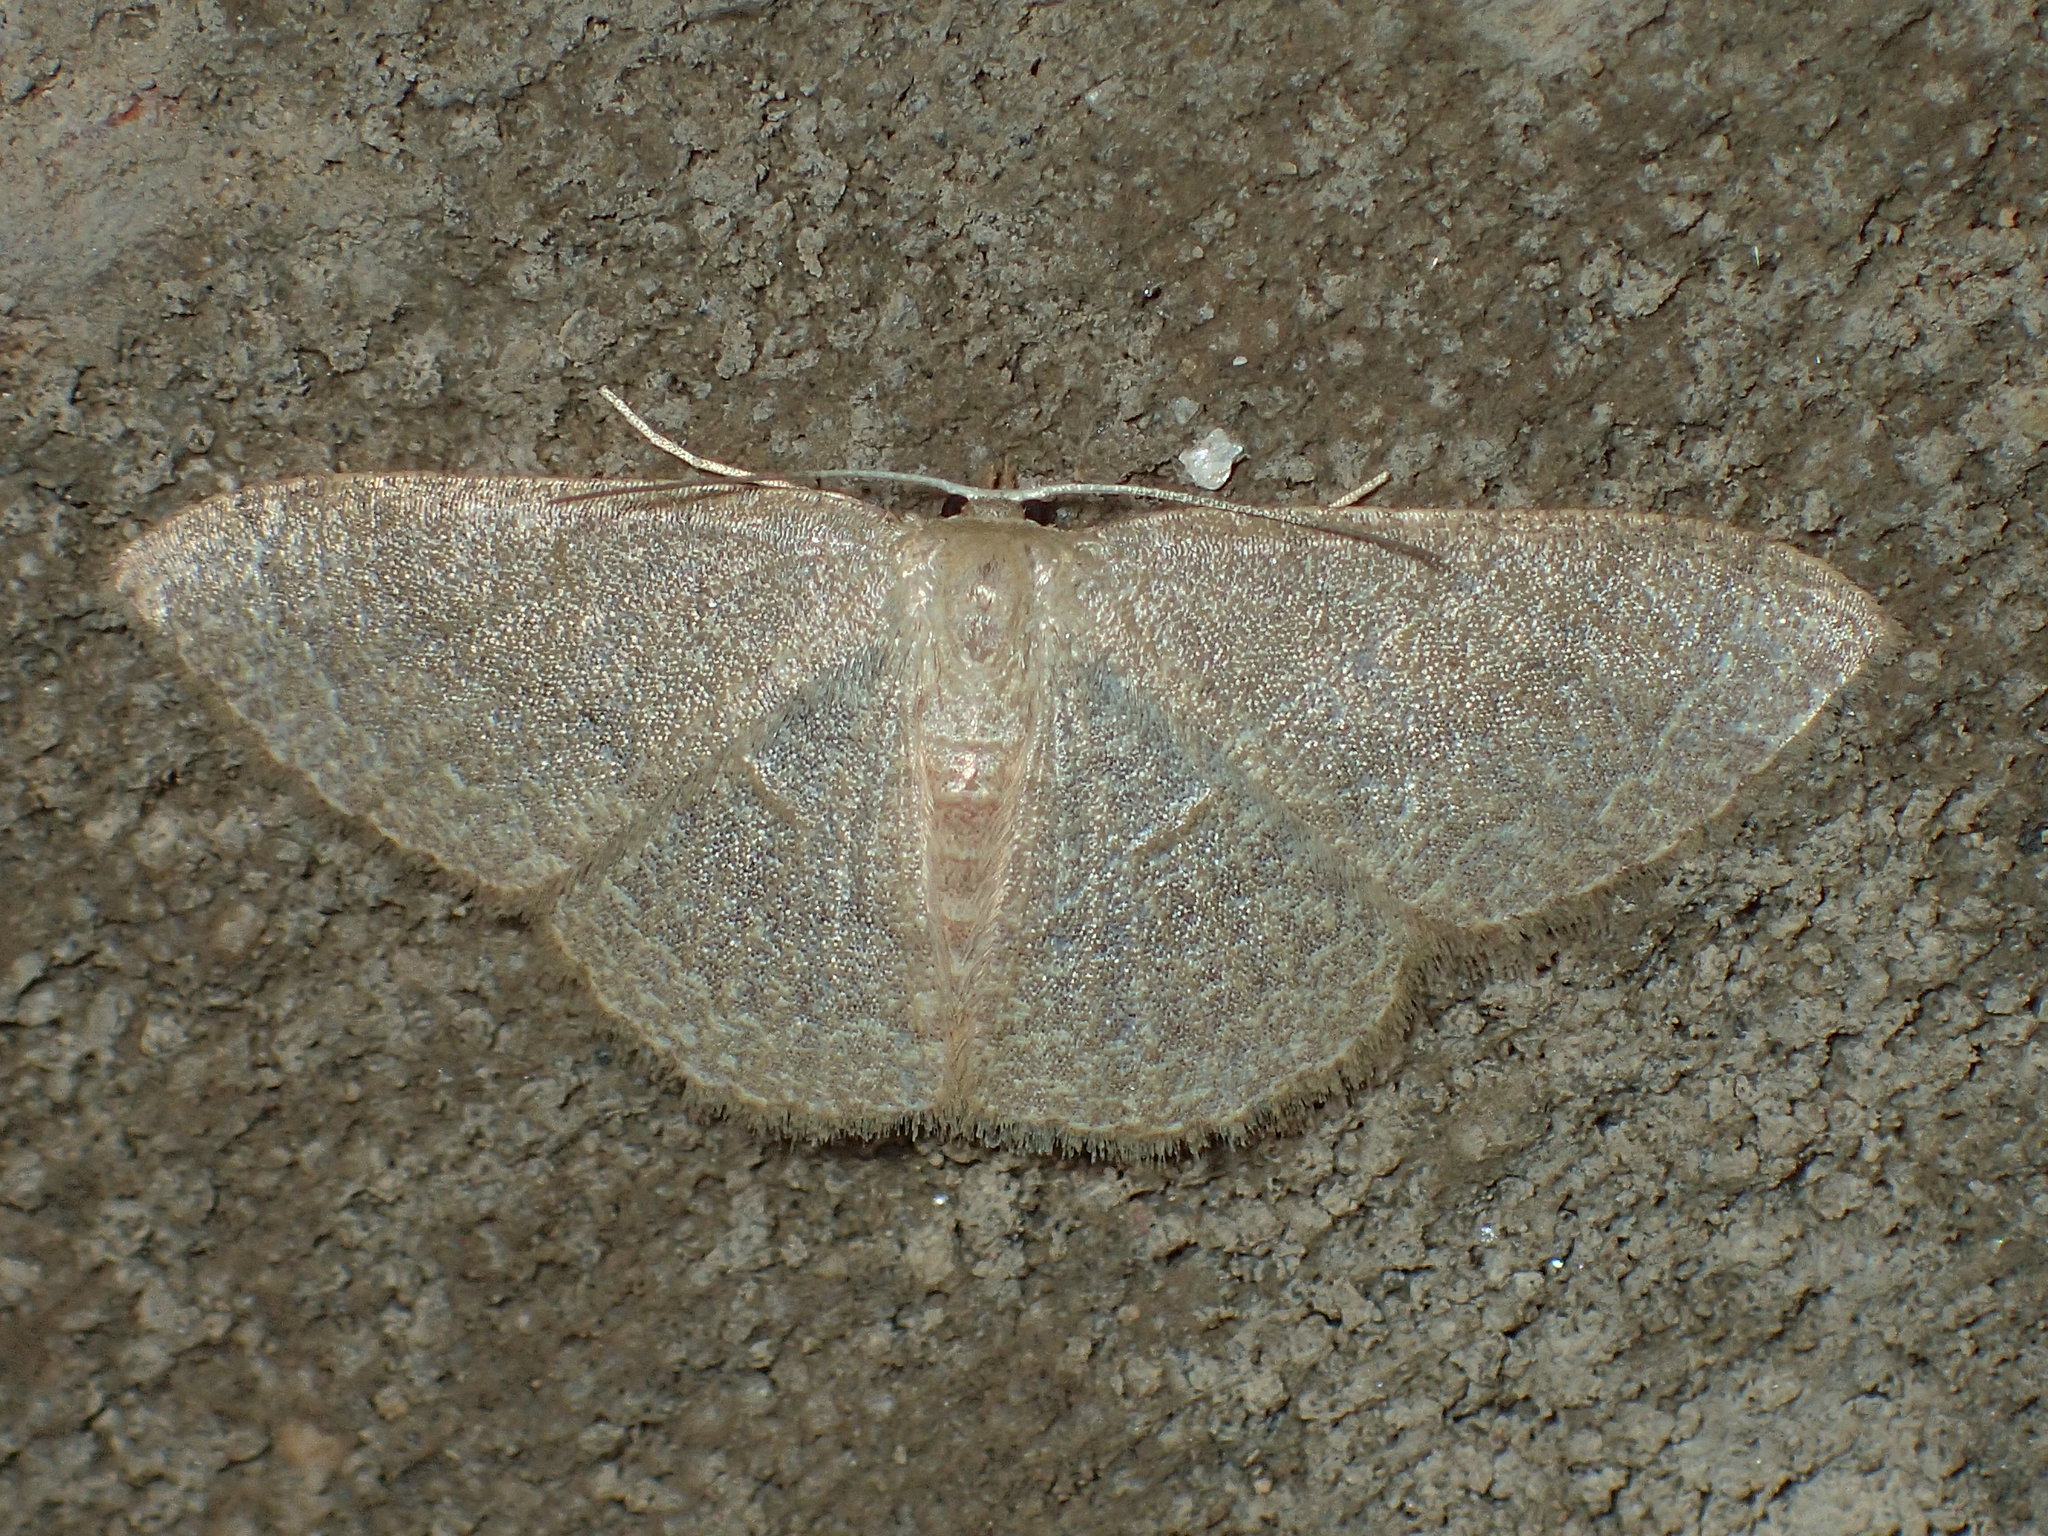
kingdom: Animalia
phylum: Arthropoda
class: Insecta
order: Lepidoptera
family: Geometridae
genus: Pleuroprucha
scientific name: Pleuroprucha insulsaria
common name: Common tan wave
